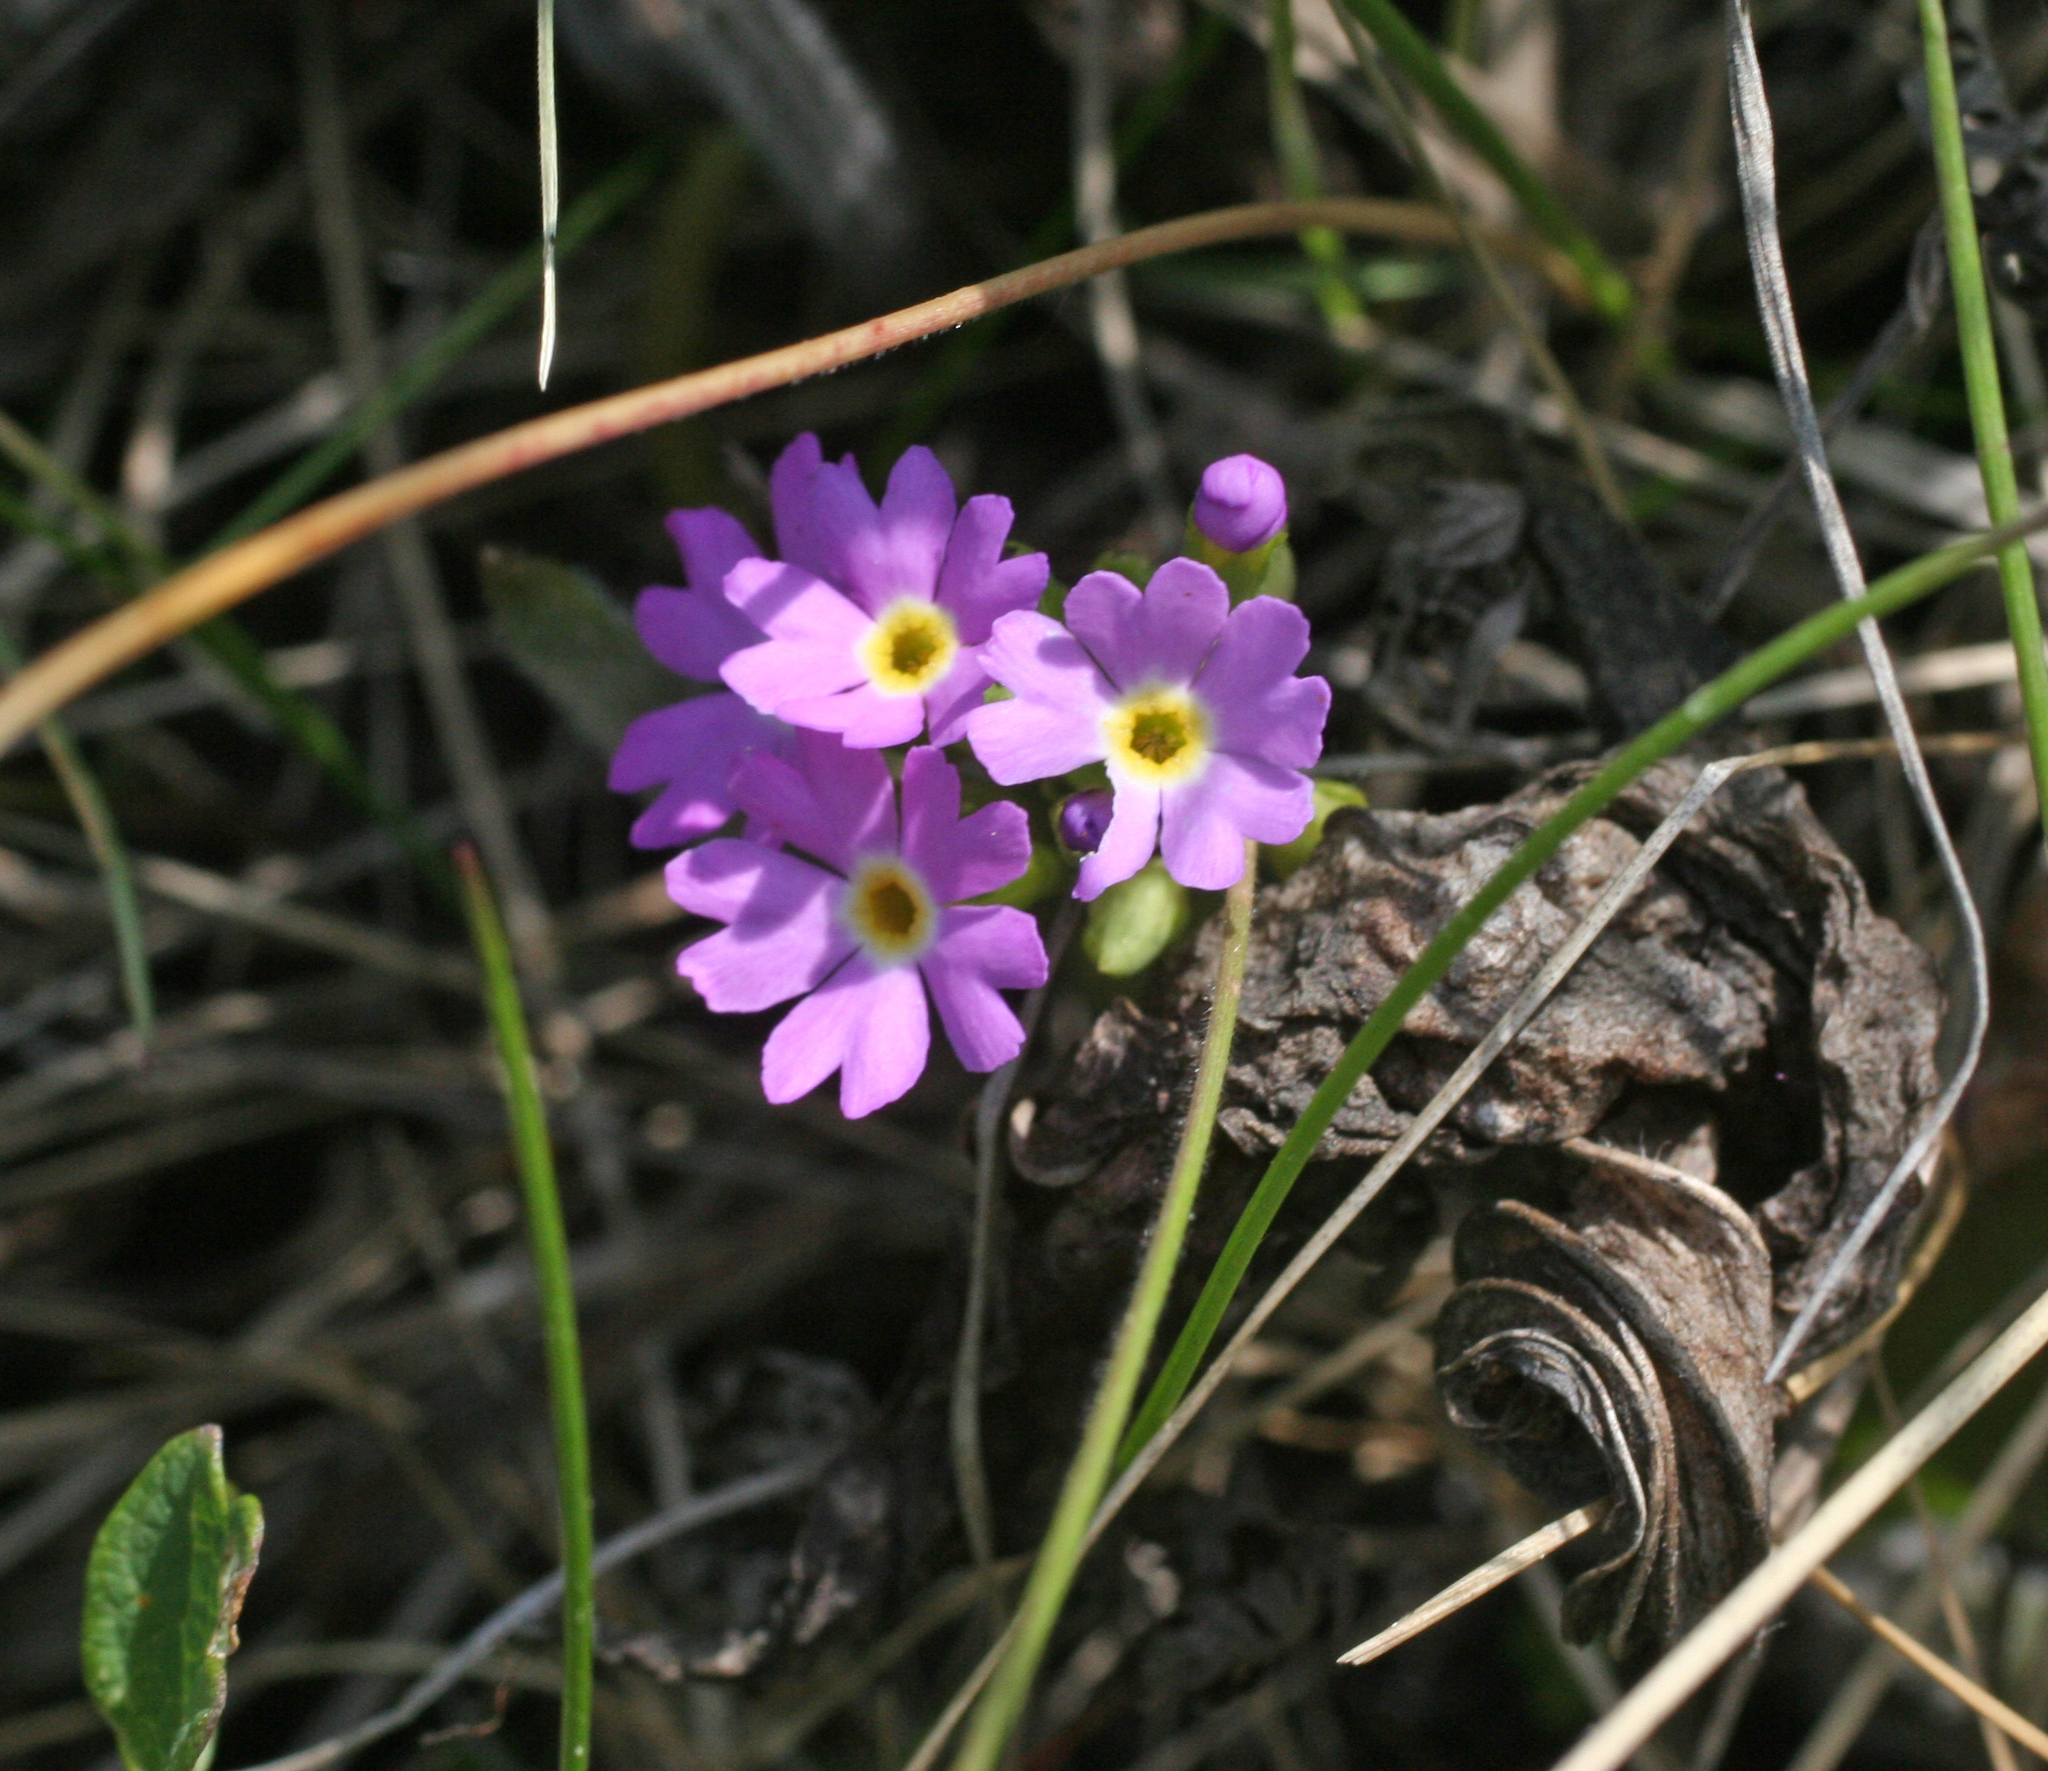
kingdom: Plantae
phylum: Tracheophyta
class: Magnoliopsida
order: Ericales
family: Primulaceae
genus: Primula
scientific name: Primula longiscapa
